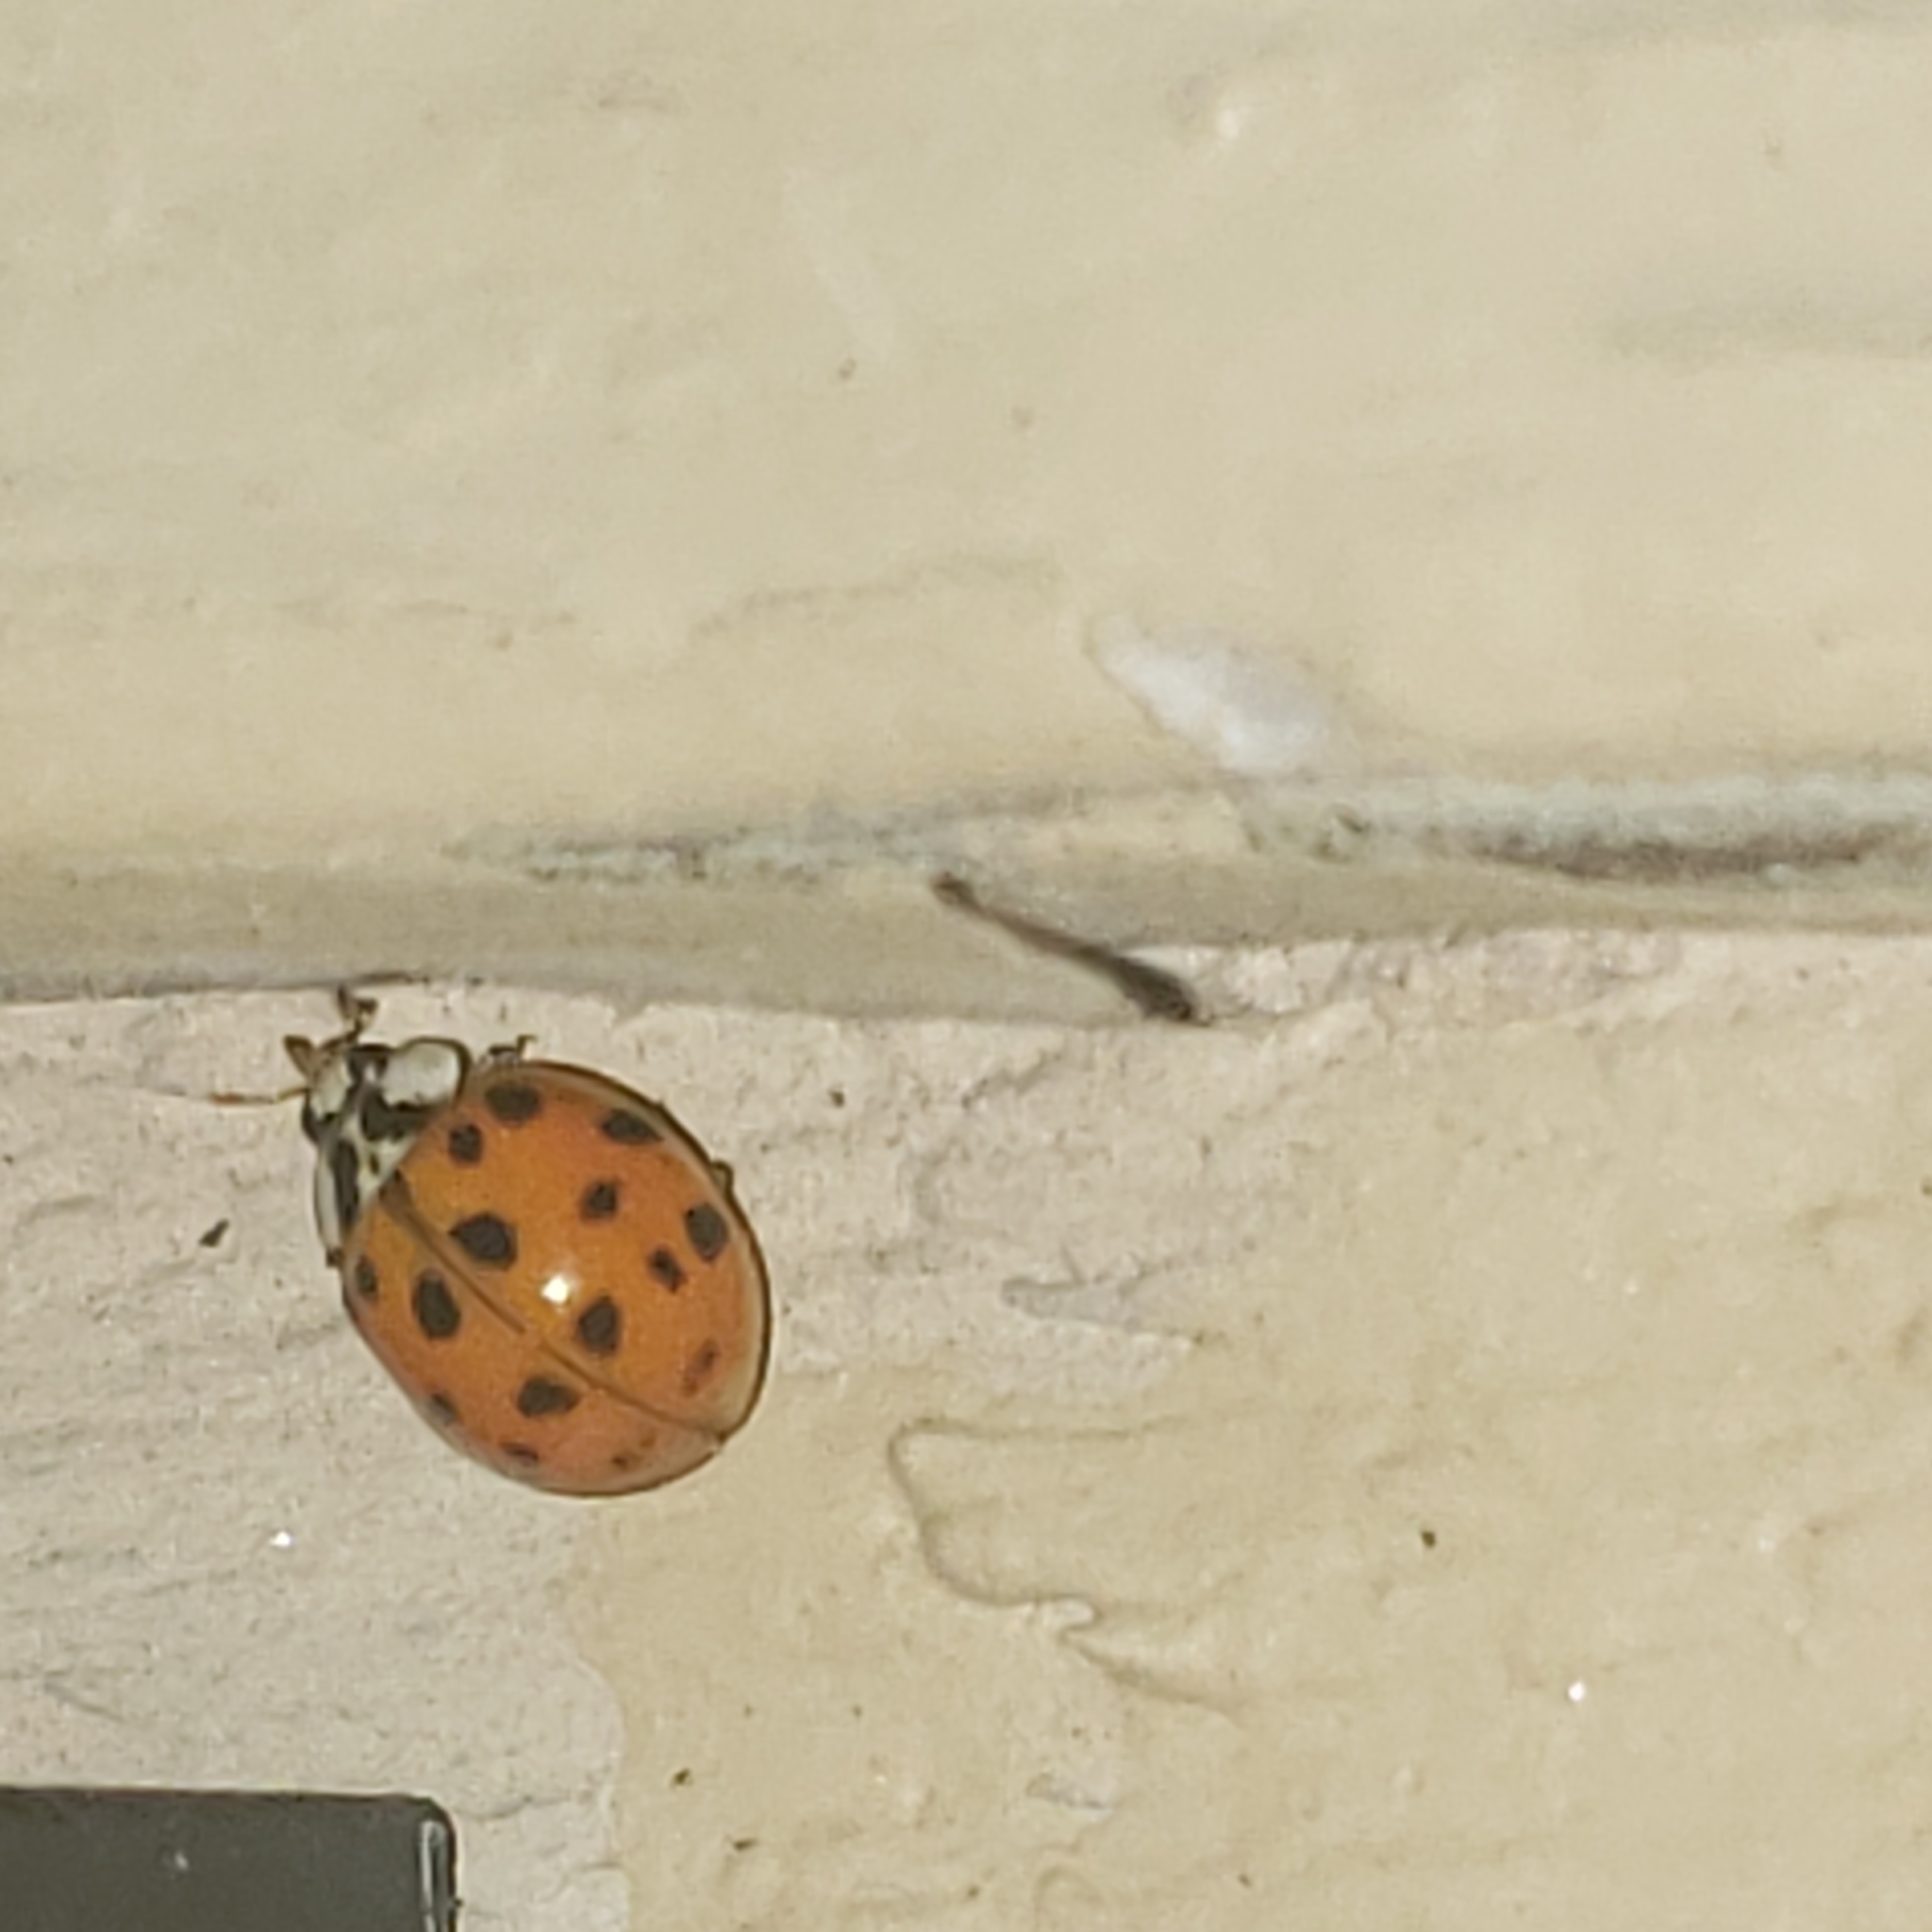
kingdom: Animalia
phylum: Arthropoda
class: Insecta
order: Coleoptera
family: Coccinellidae
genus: Harmonia
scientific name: Harmonia axyridis
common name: Harlequin ladybird
